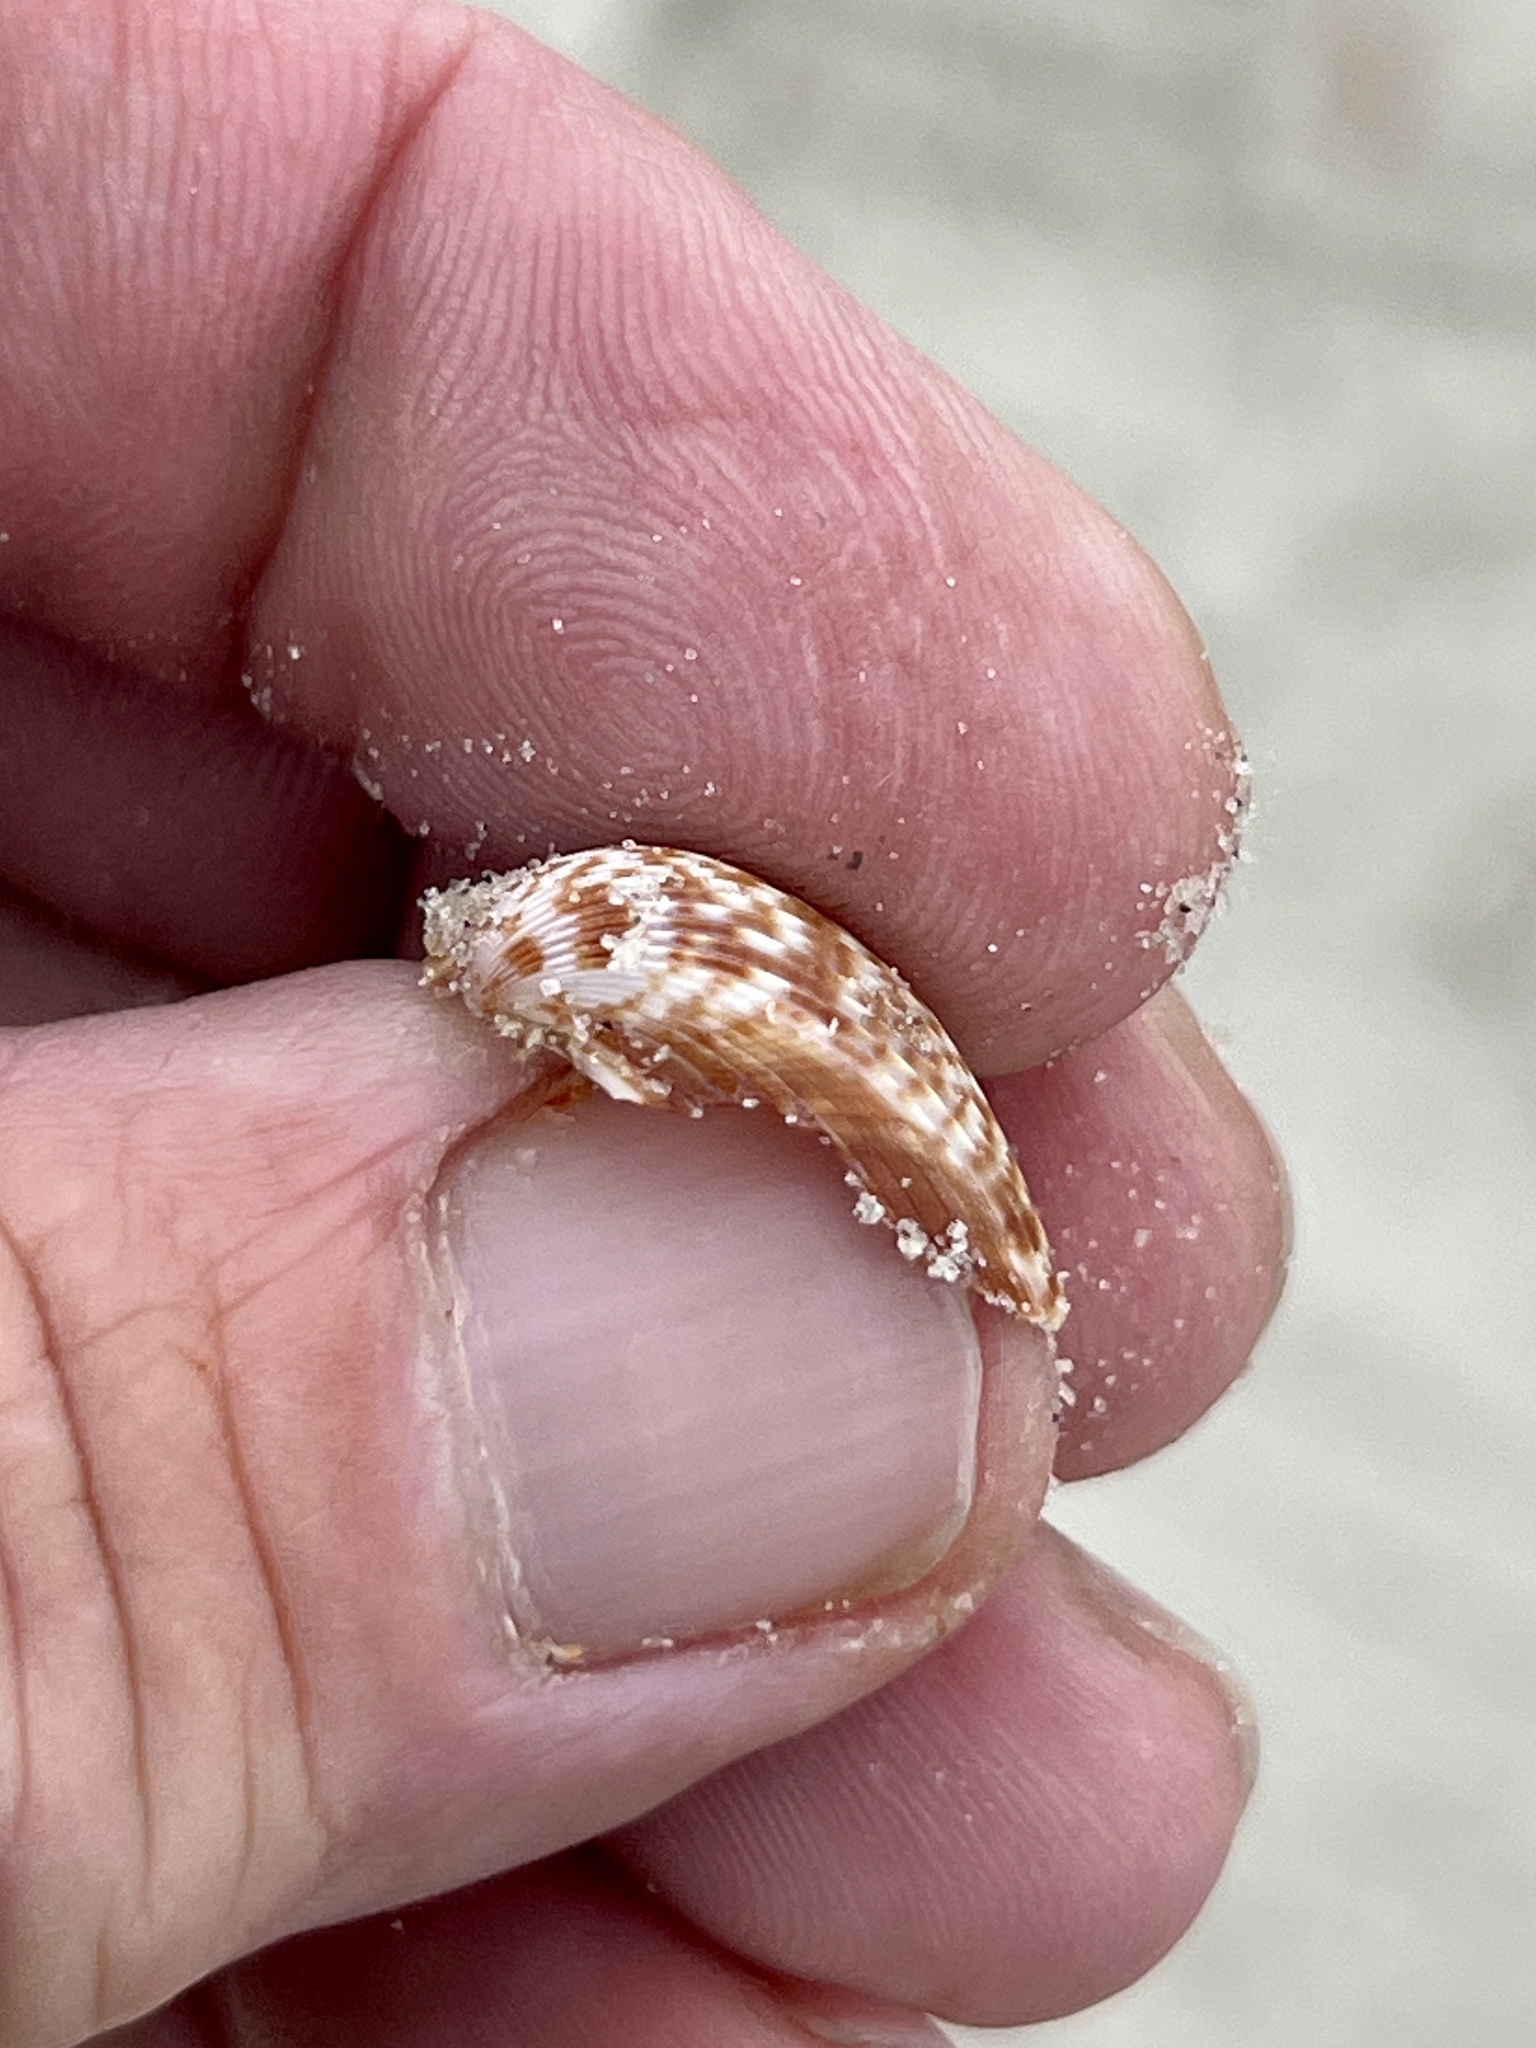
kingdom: Animalia
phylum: Mollusca
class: Bivalvia
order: Cardiida
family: Cardiidae
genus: Dinocardium
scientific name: Dinocardium robustum
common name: Atlantic giant cockle
